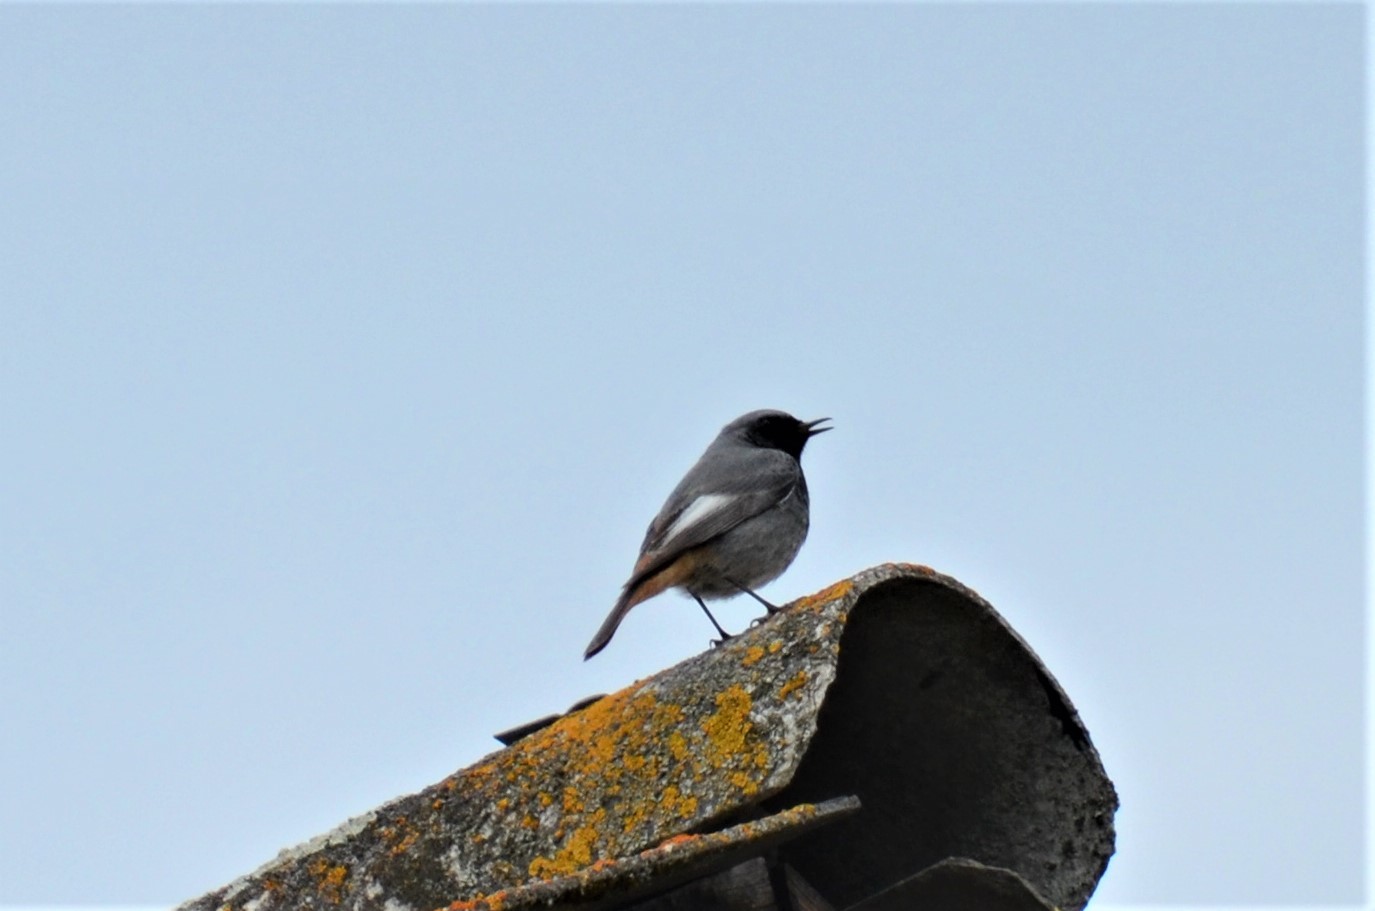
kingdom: Animalia
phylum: Chordata
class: Aves
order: Passeriformes
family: Muscicapidae
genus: Phoenicurus
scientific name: Phoenicurus ochruros
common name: Black redstart
